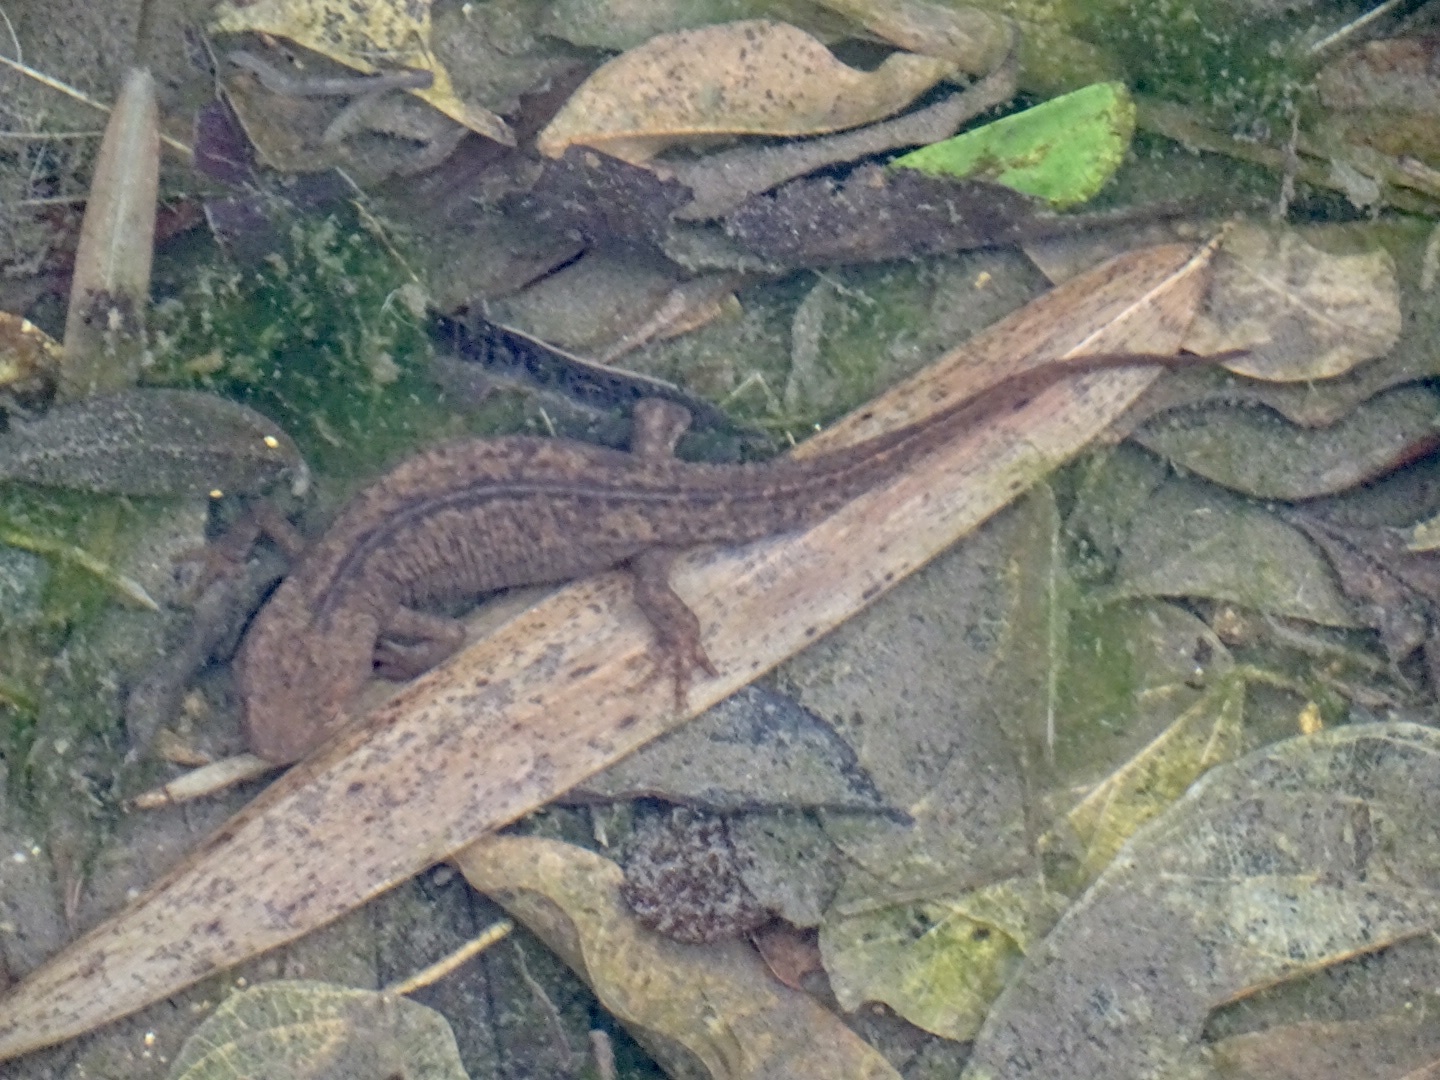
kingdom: Animalia
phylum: Chordata
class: Amphibia
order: Caudata
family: Salamandridae
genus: Paramesotriton
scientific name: Paramesotriton hongkongensis
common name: Hong kong warty newt
